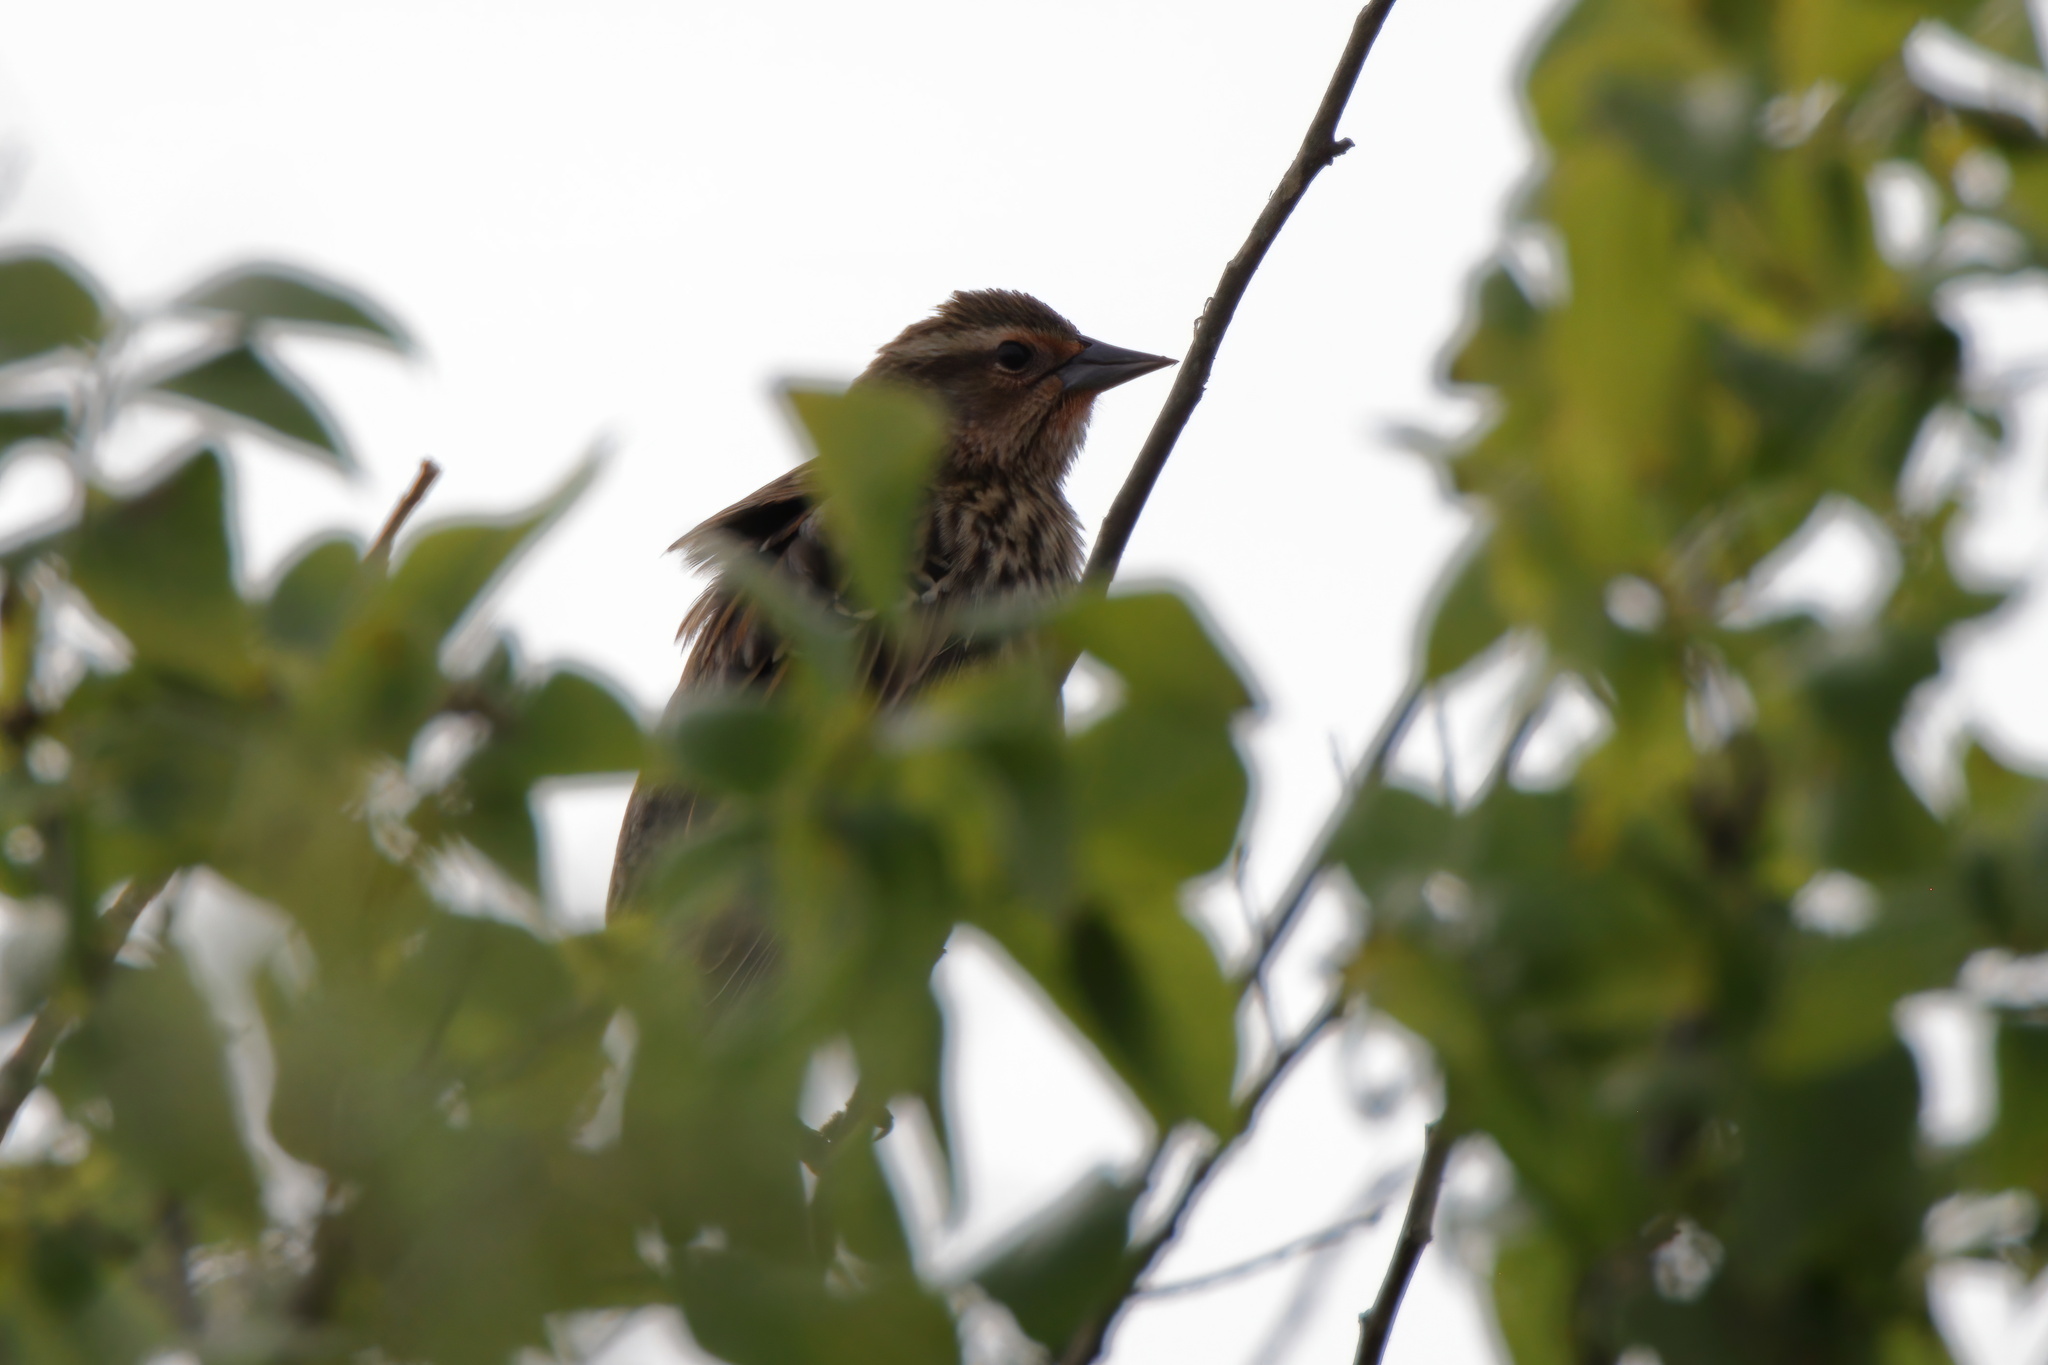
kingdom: Animalia
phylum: Chordata
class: Aves
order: Passeriformes
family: Icteridae
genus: Agelaius
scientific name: Agelaius phoeniceus
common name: Red-winged blackbird
